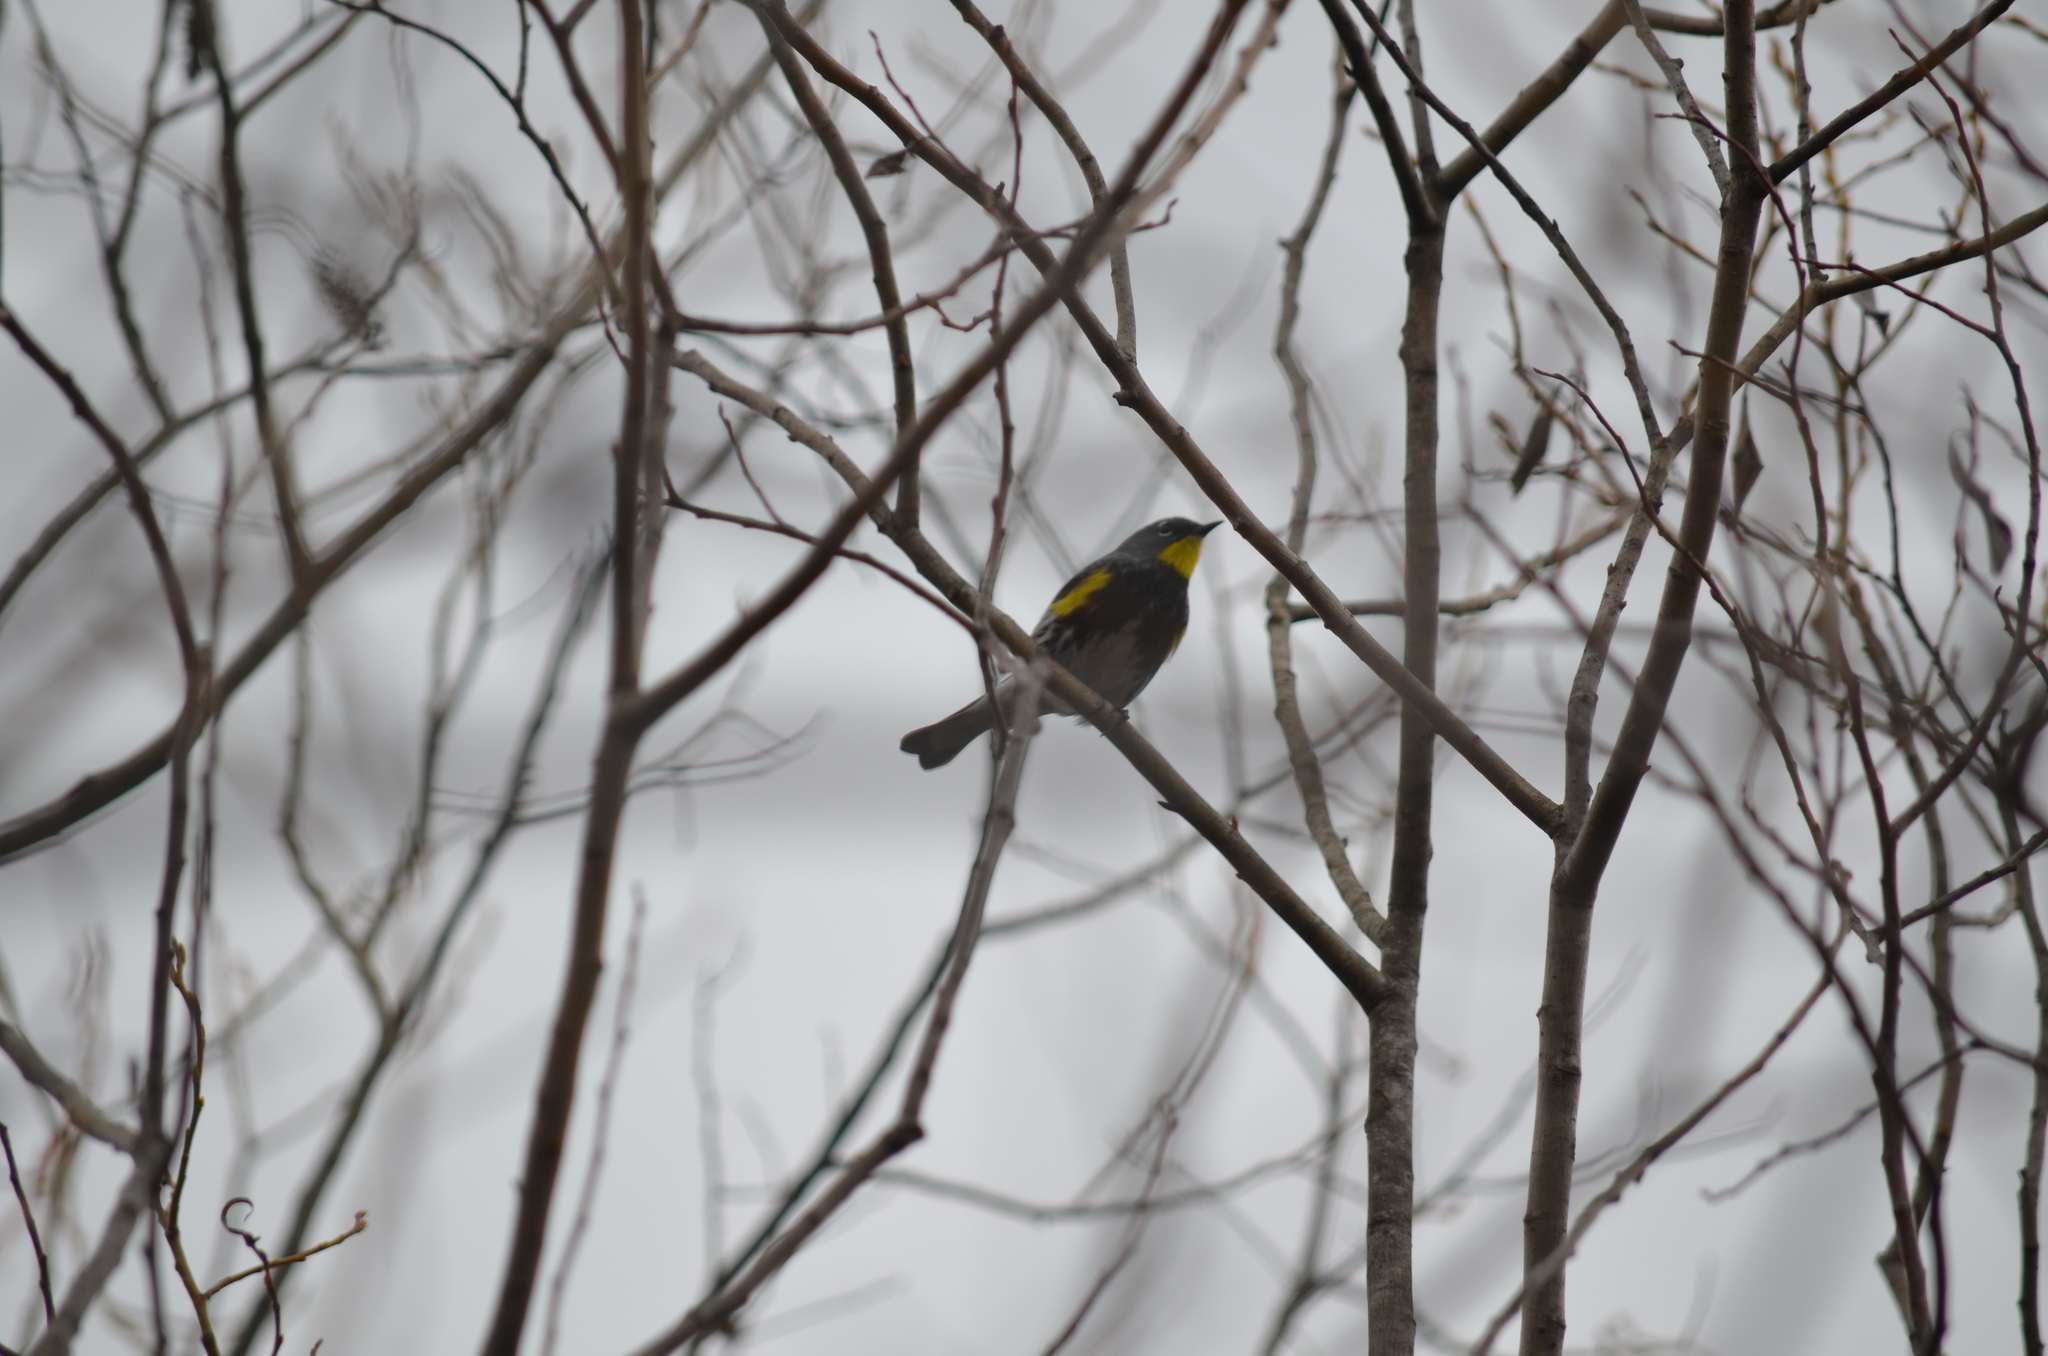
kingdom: Animalia
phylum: Chordata
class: Aves
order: Passeriformes
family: Parulidae
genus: Setophaga
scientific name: Setophaga auduboni
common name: Audubon's warbler
